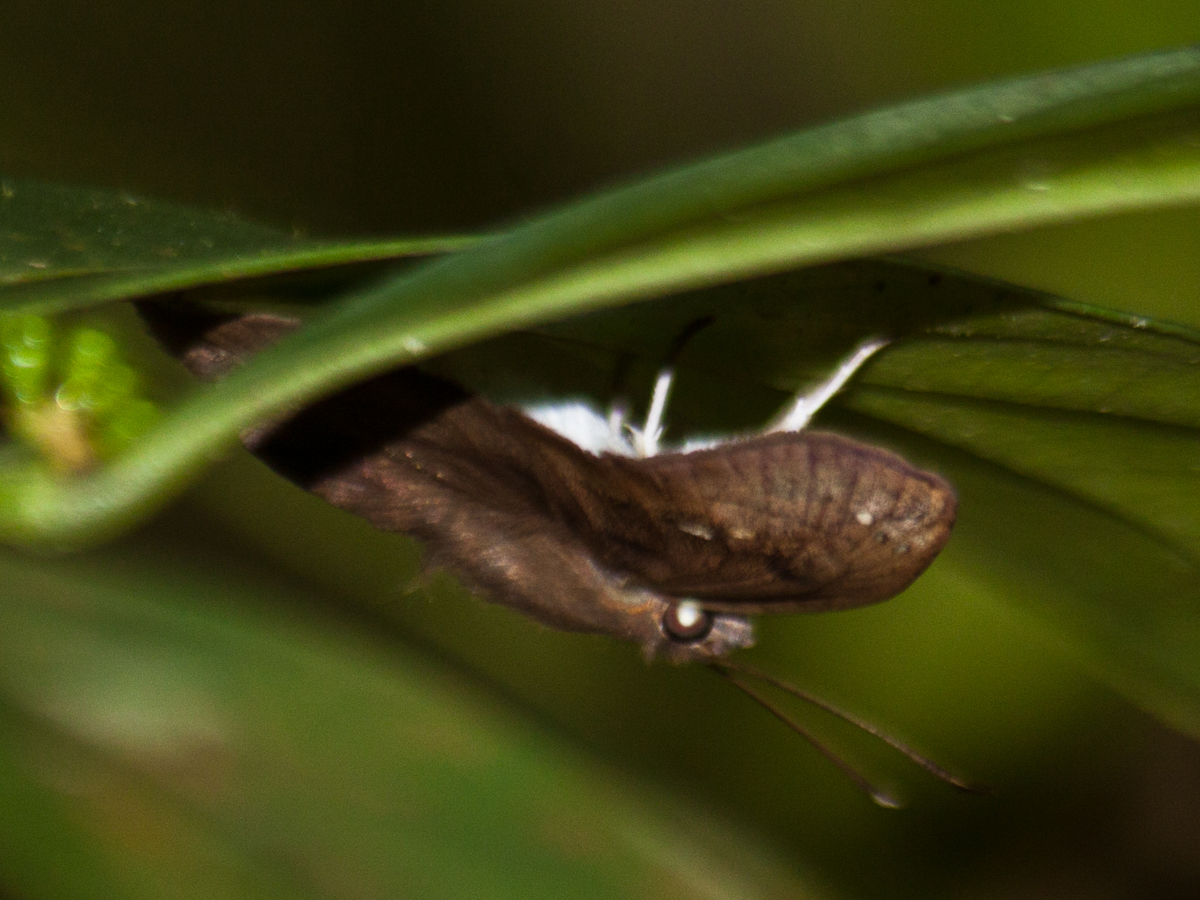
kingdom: Animalia
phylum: Arthropoda
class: Insecta
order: Lepidoptera
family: Hesperiidae
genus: Tagiades
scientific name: Tagiades japetus
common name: Pied flat
